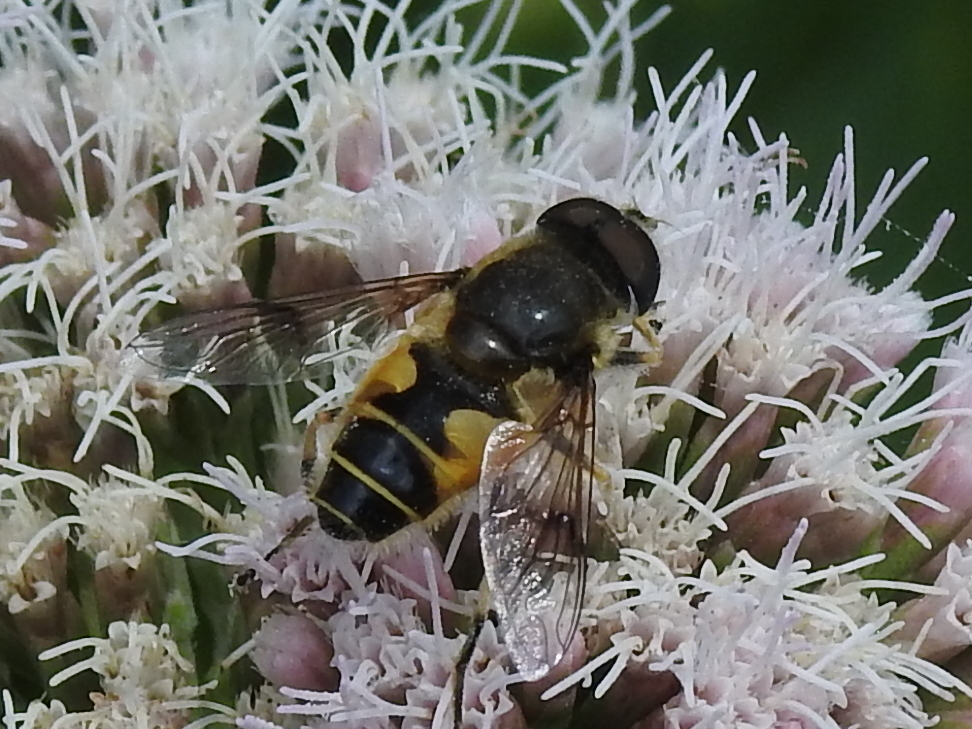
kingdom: Animalia
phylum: Arthropoda
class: Insecta
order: Diptera
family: Syrphidae
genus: Cheilosia
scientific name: Cheilosia morio
